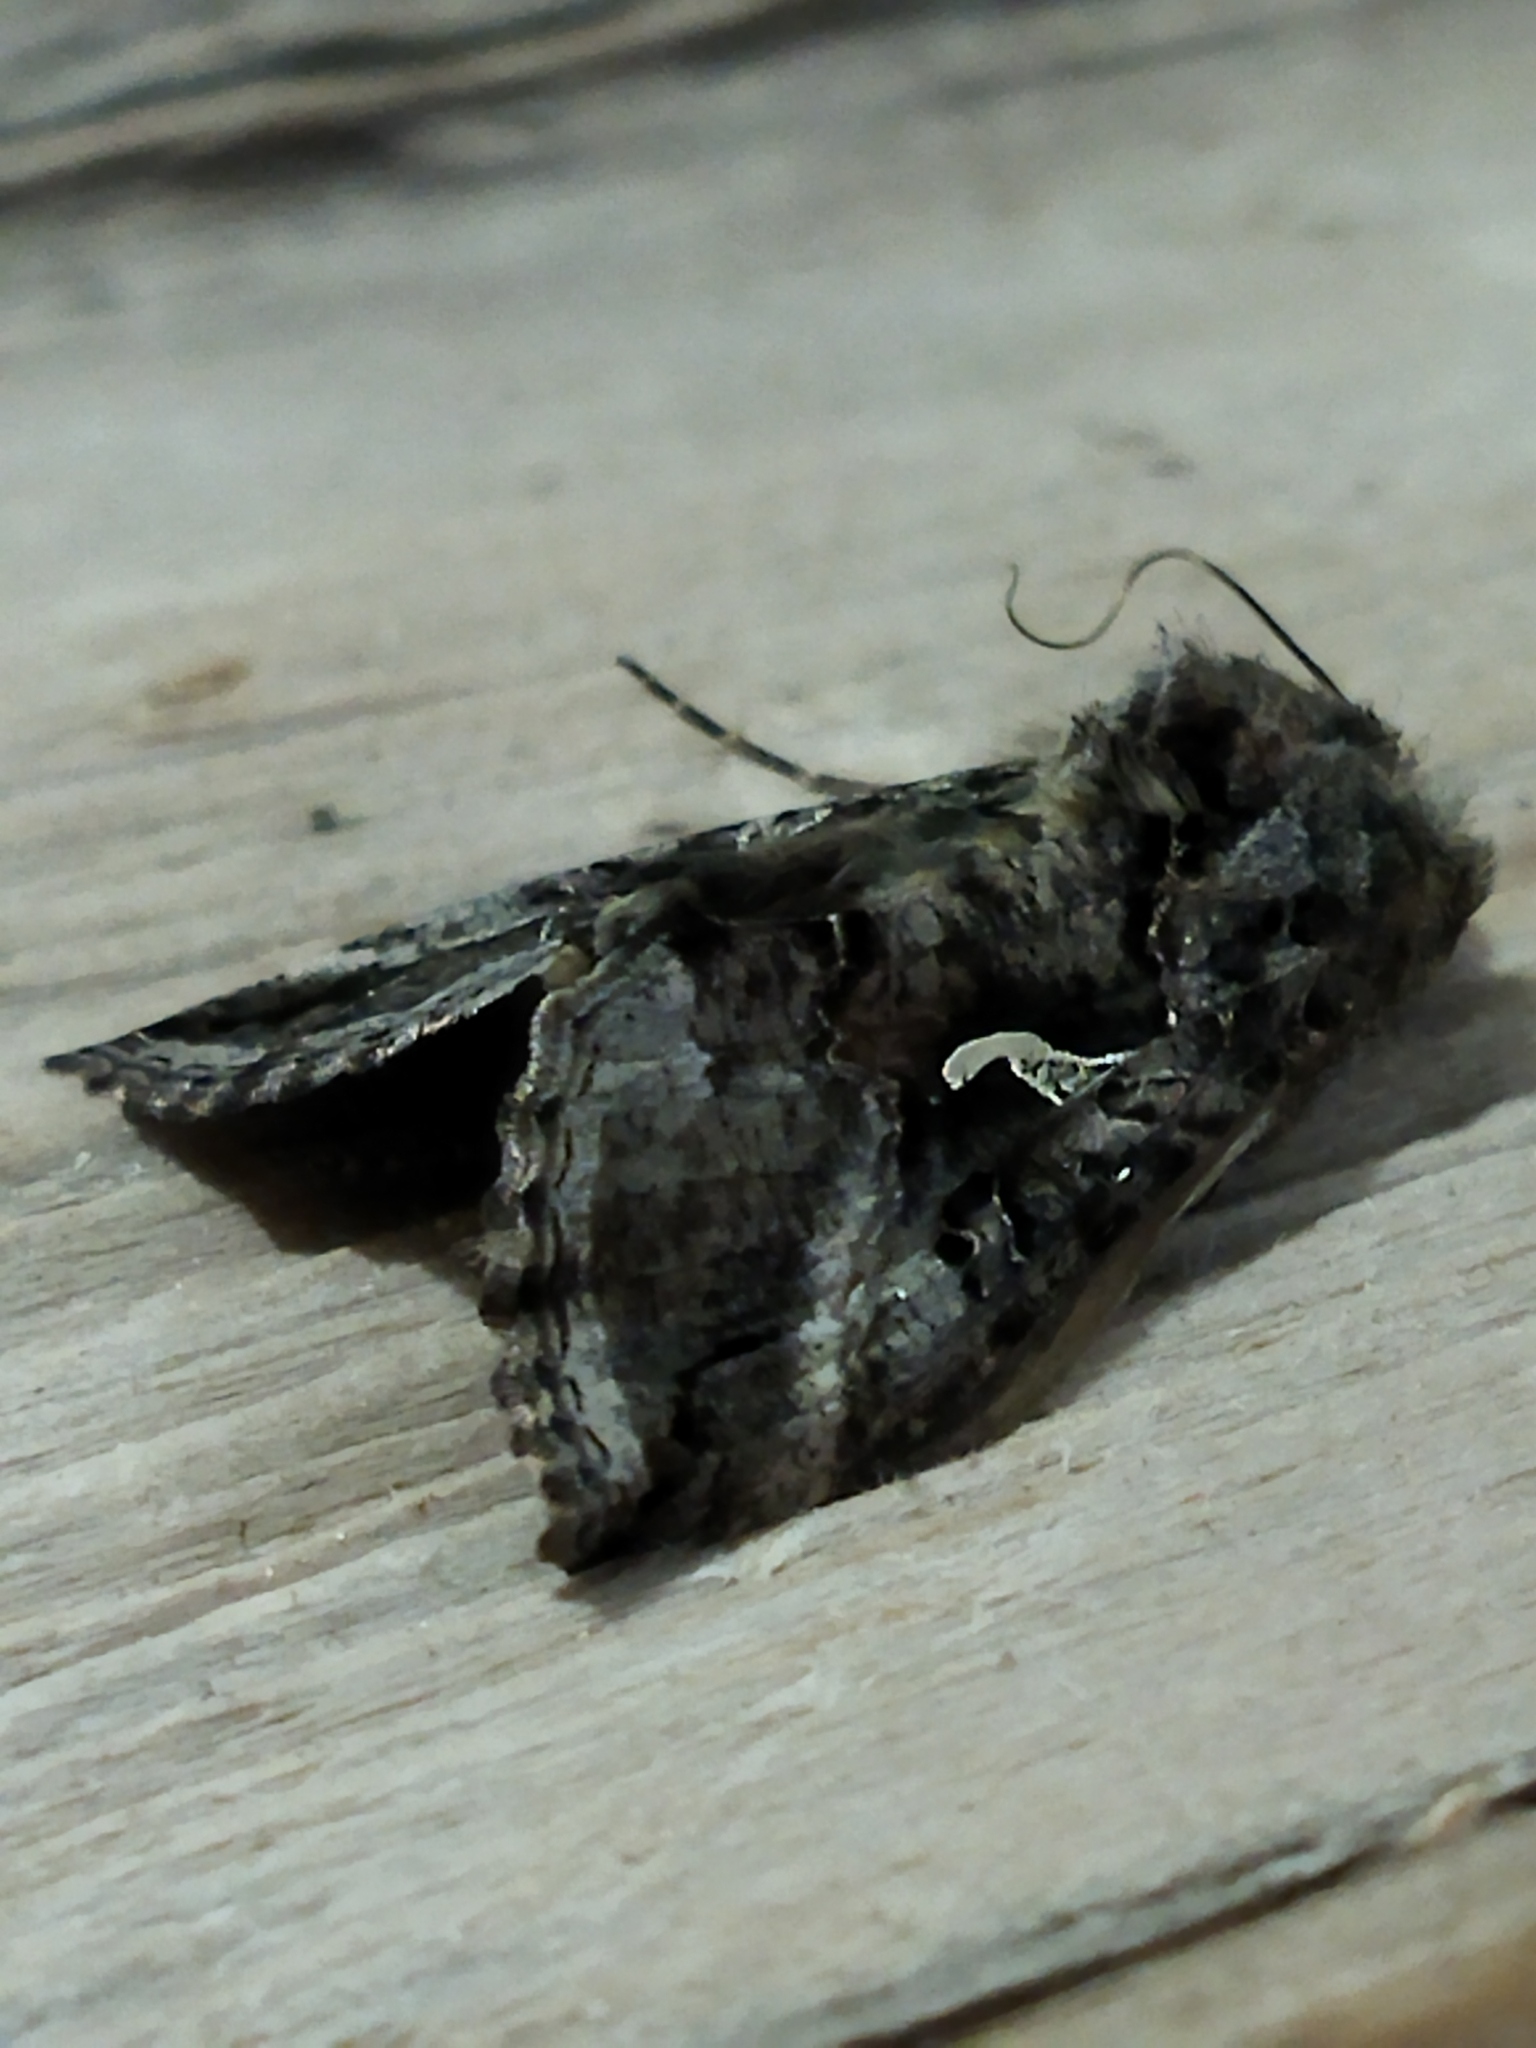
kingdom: Animalia
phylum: Arthropoda
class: Insecta
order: Lepidoptera
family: Noctuidae
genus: Autographa
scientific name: Autographa gamma
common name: Silver y
